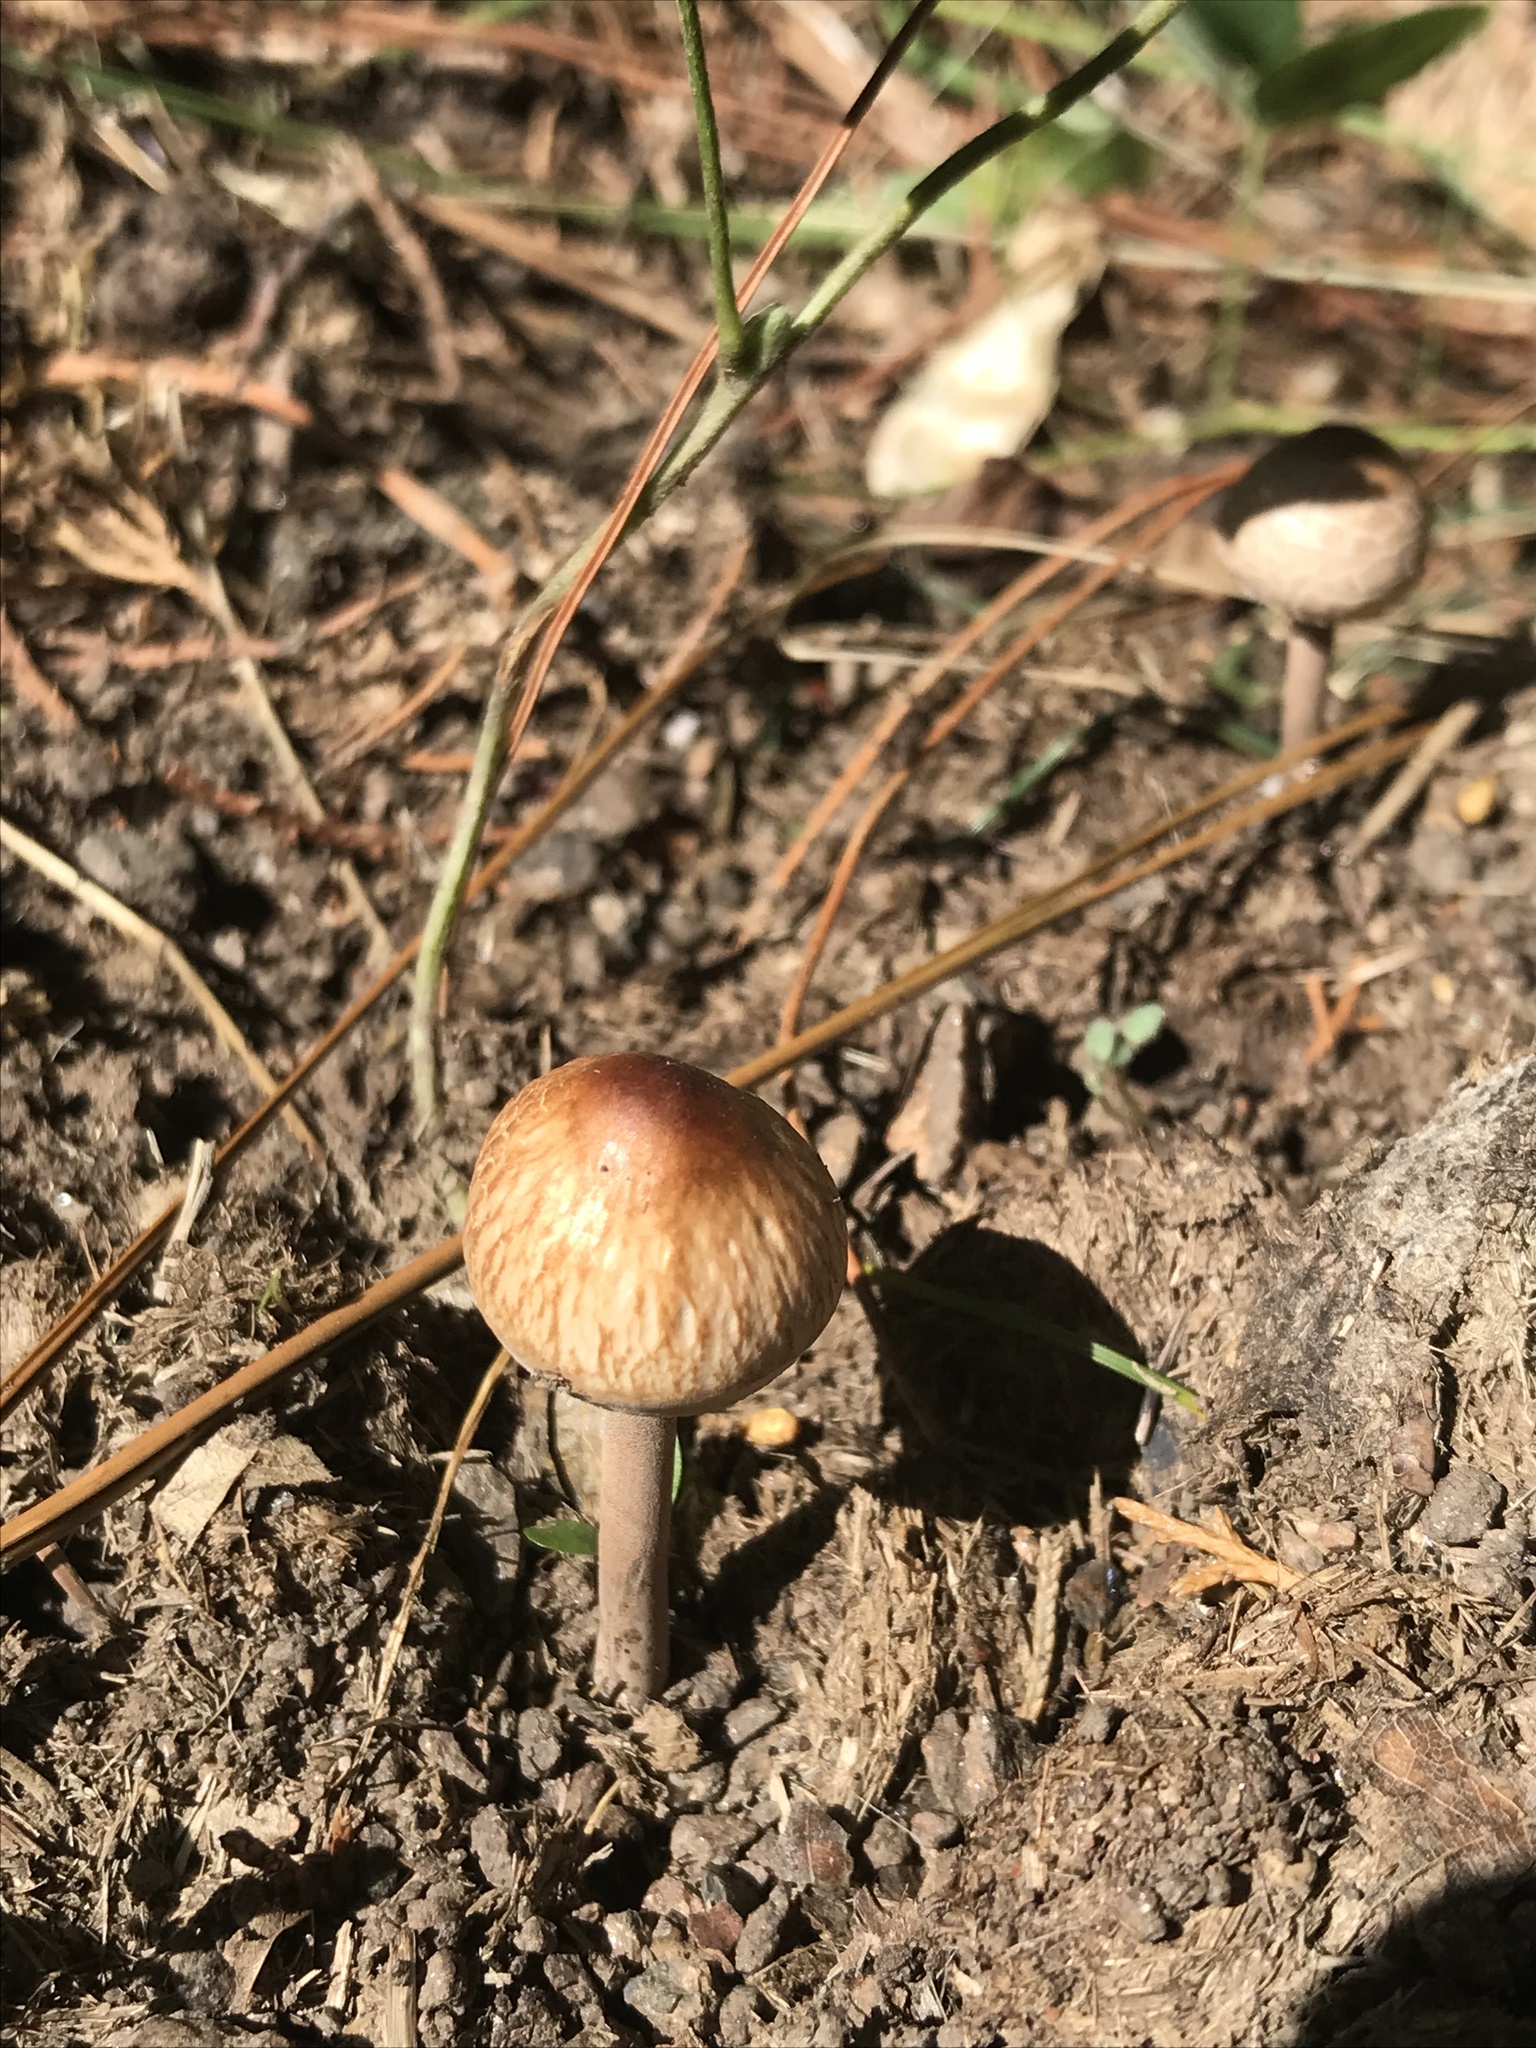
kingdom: Fungi
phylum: Basidiomycota
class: Agaricomycetes
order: Agaricales
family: Bolbitiaceae
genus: Panaeolus
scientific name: Panaeolus cinctulus
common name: Banded mottlegill
